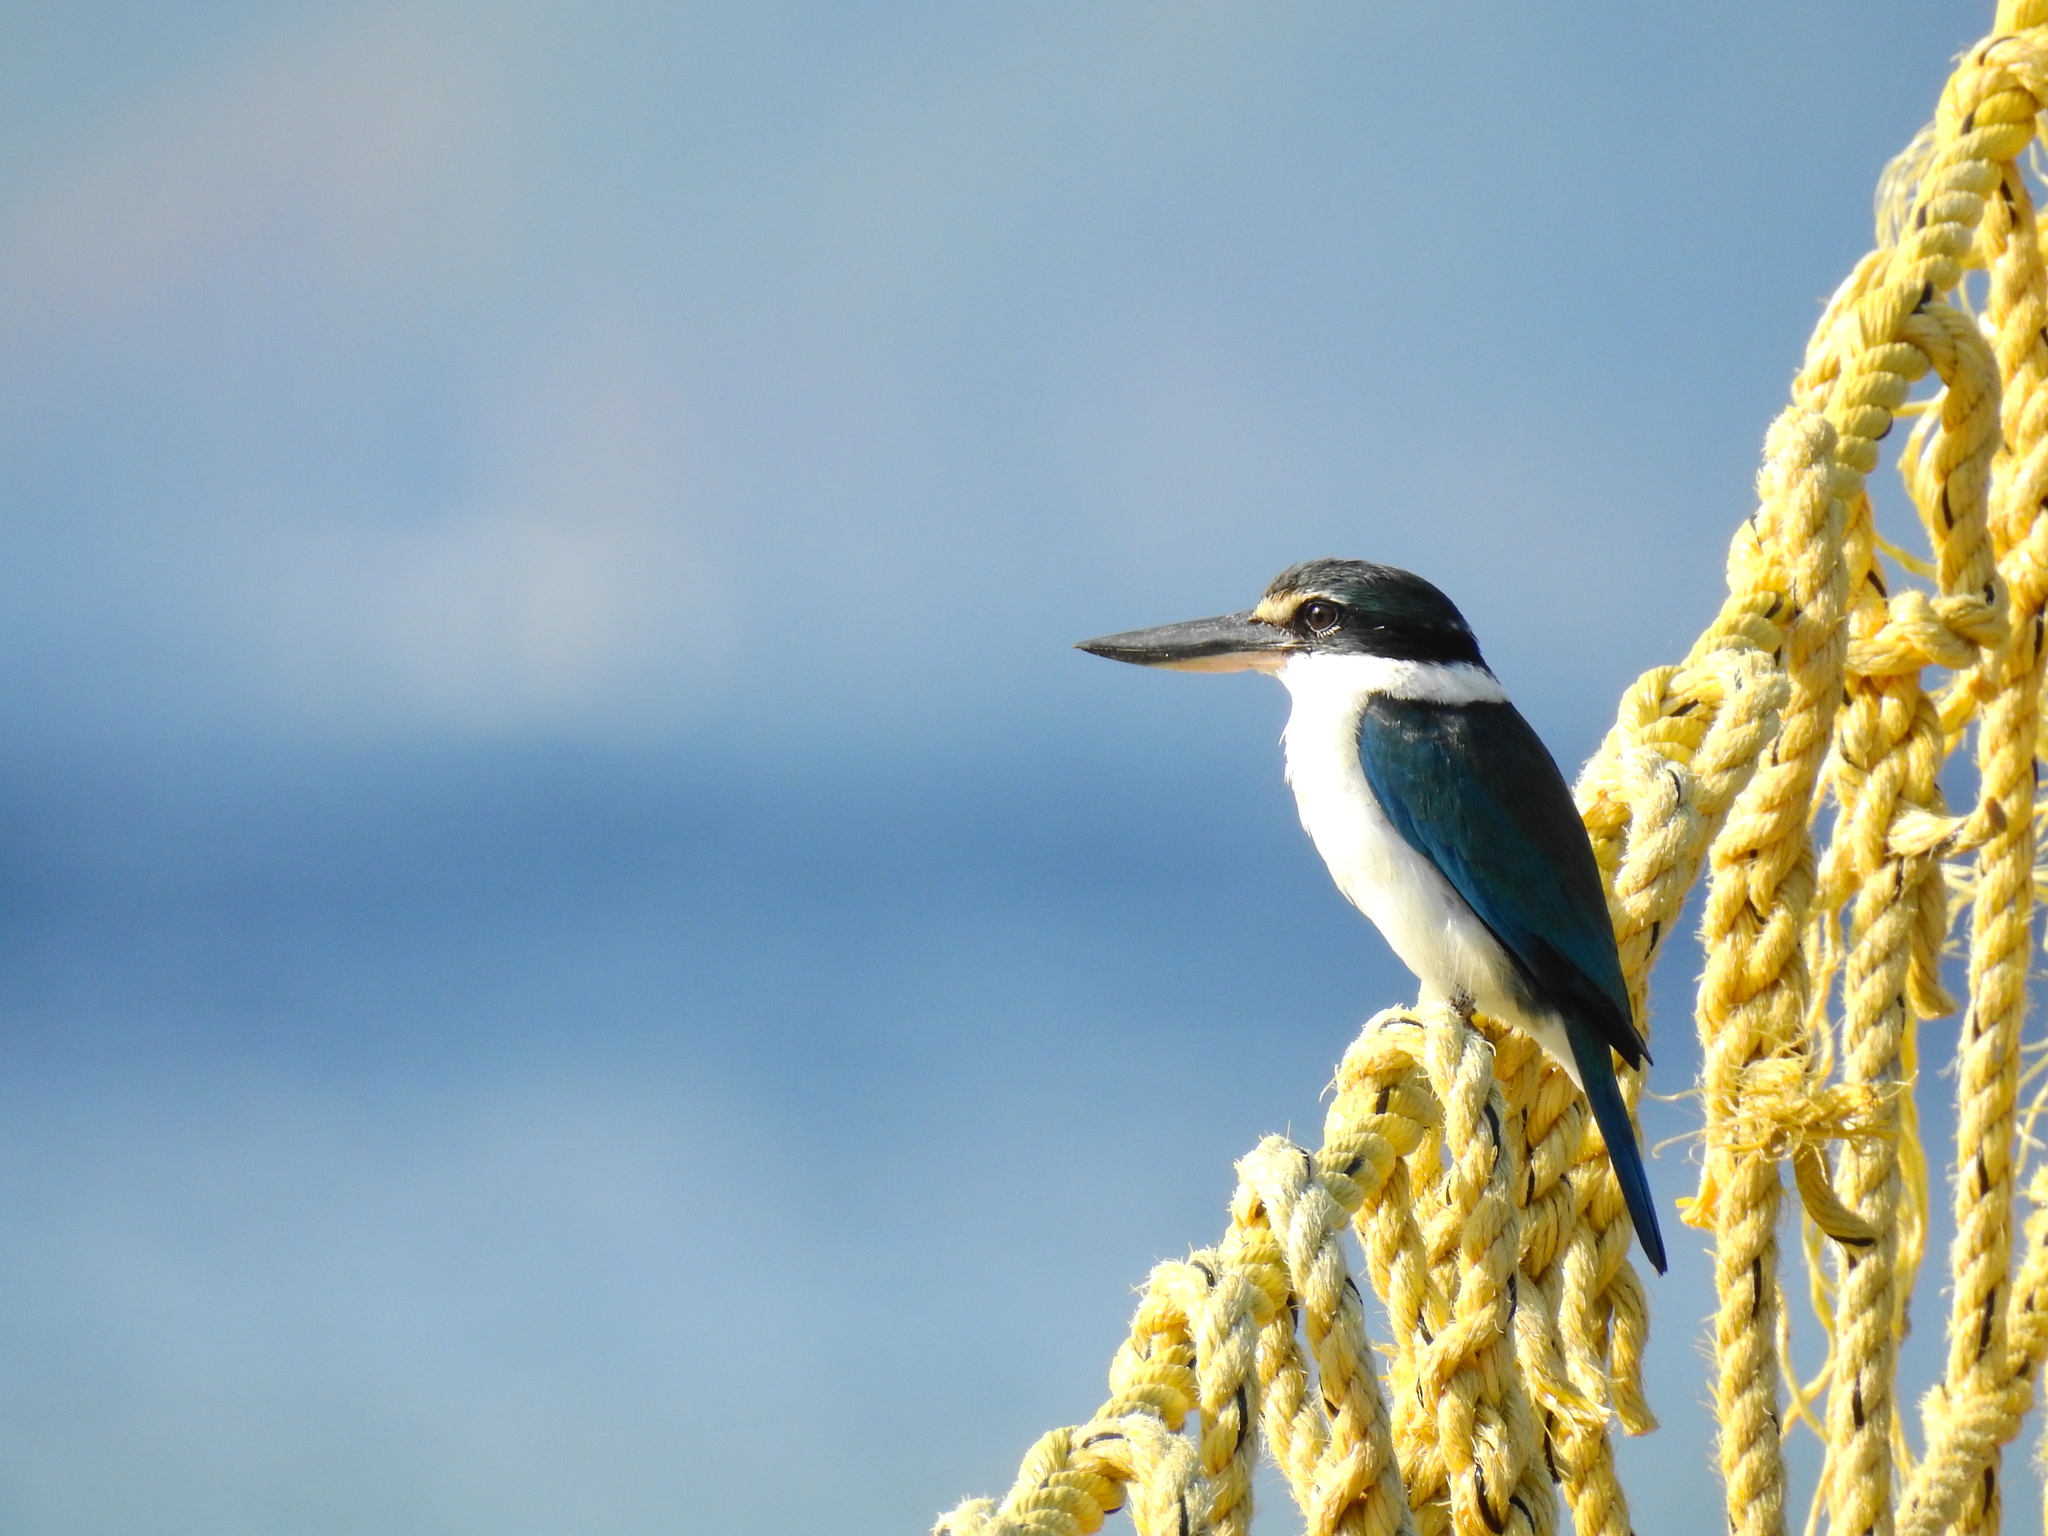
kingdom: Animalia
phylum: Chordata
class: Aves
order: Coraciiformes
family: Alcedinidae
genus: Todiramphus
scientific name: Todiramphus chloris
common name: Collared kingfisher
